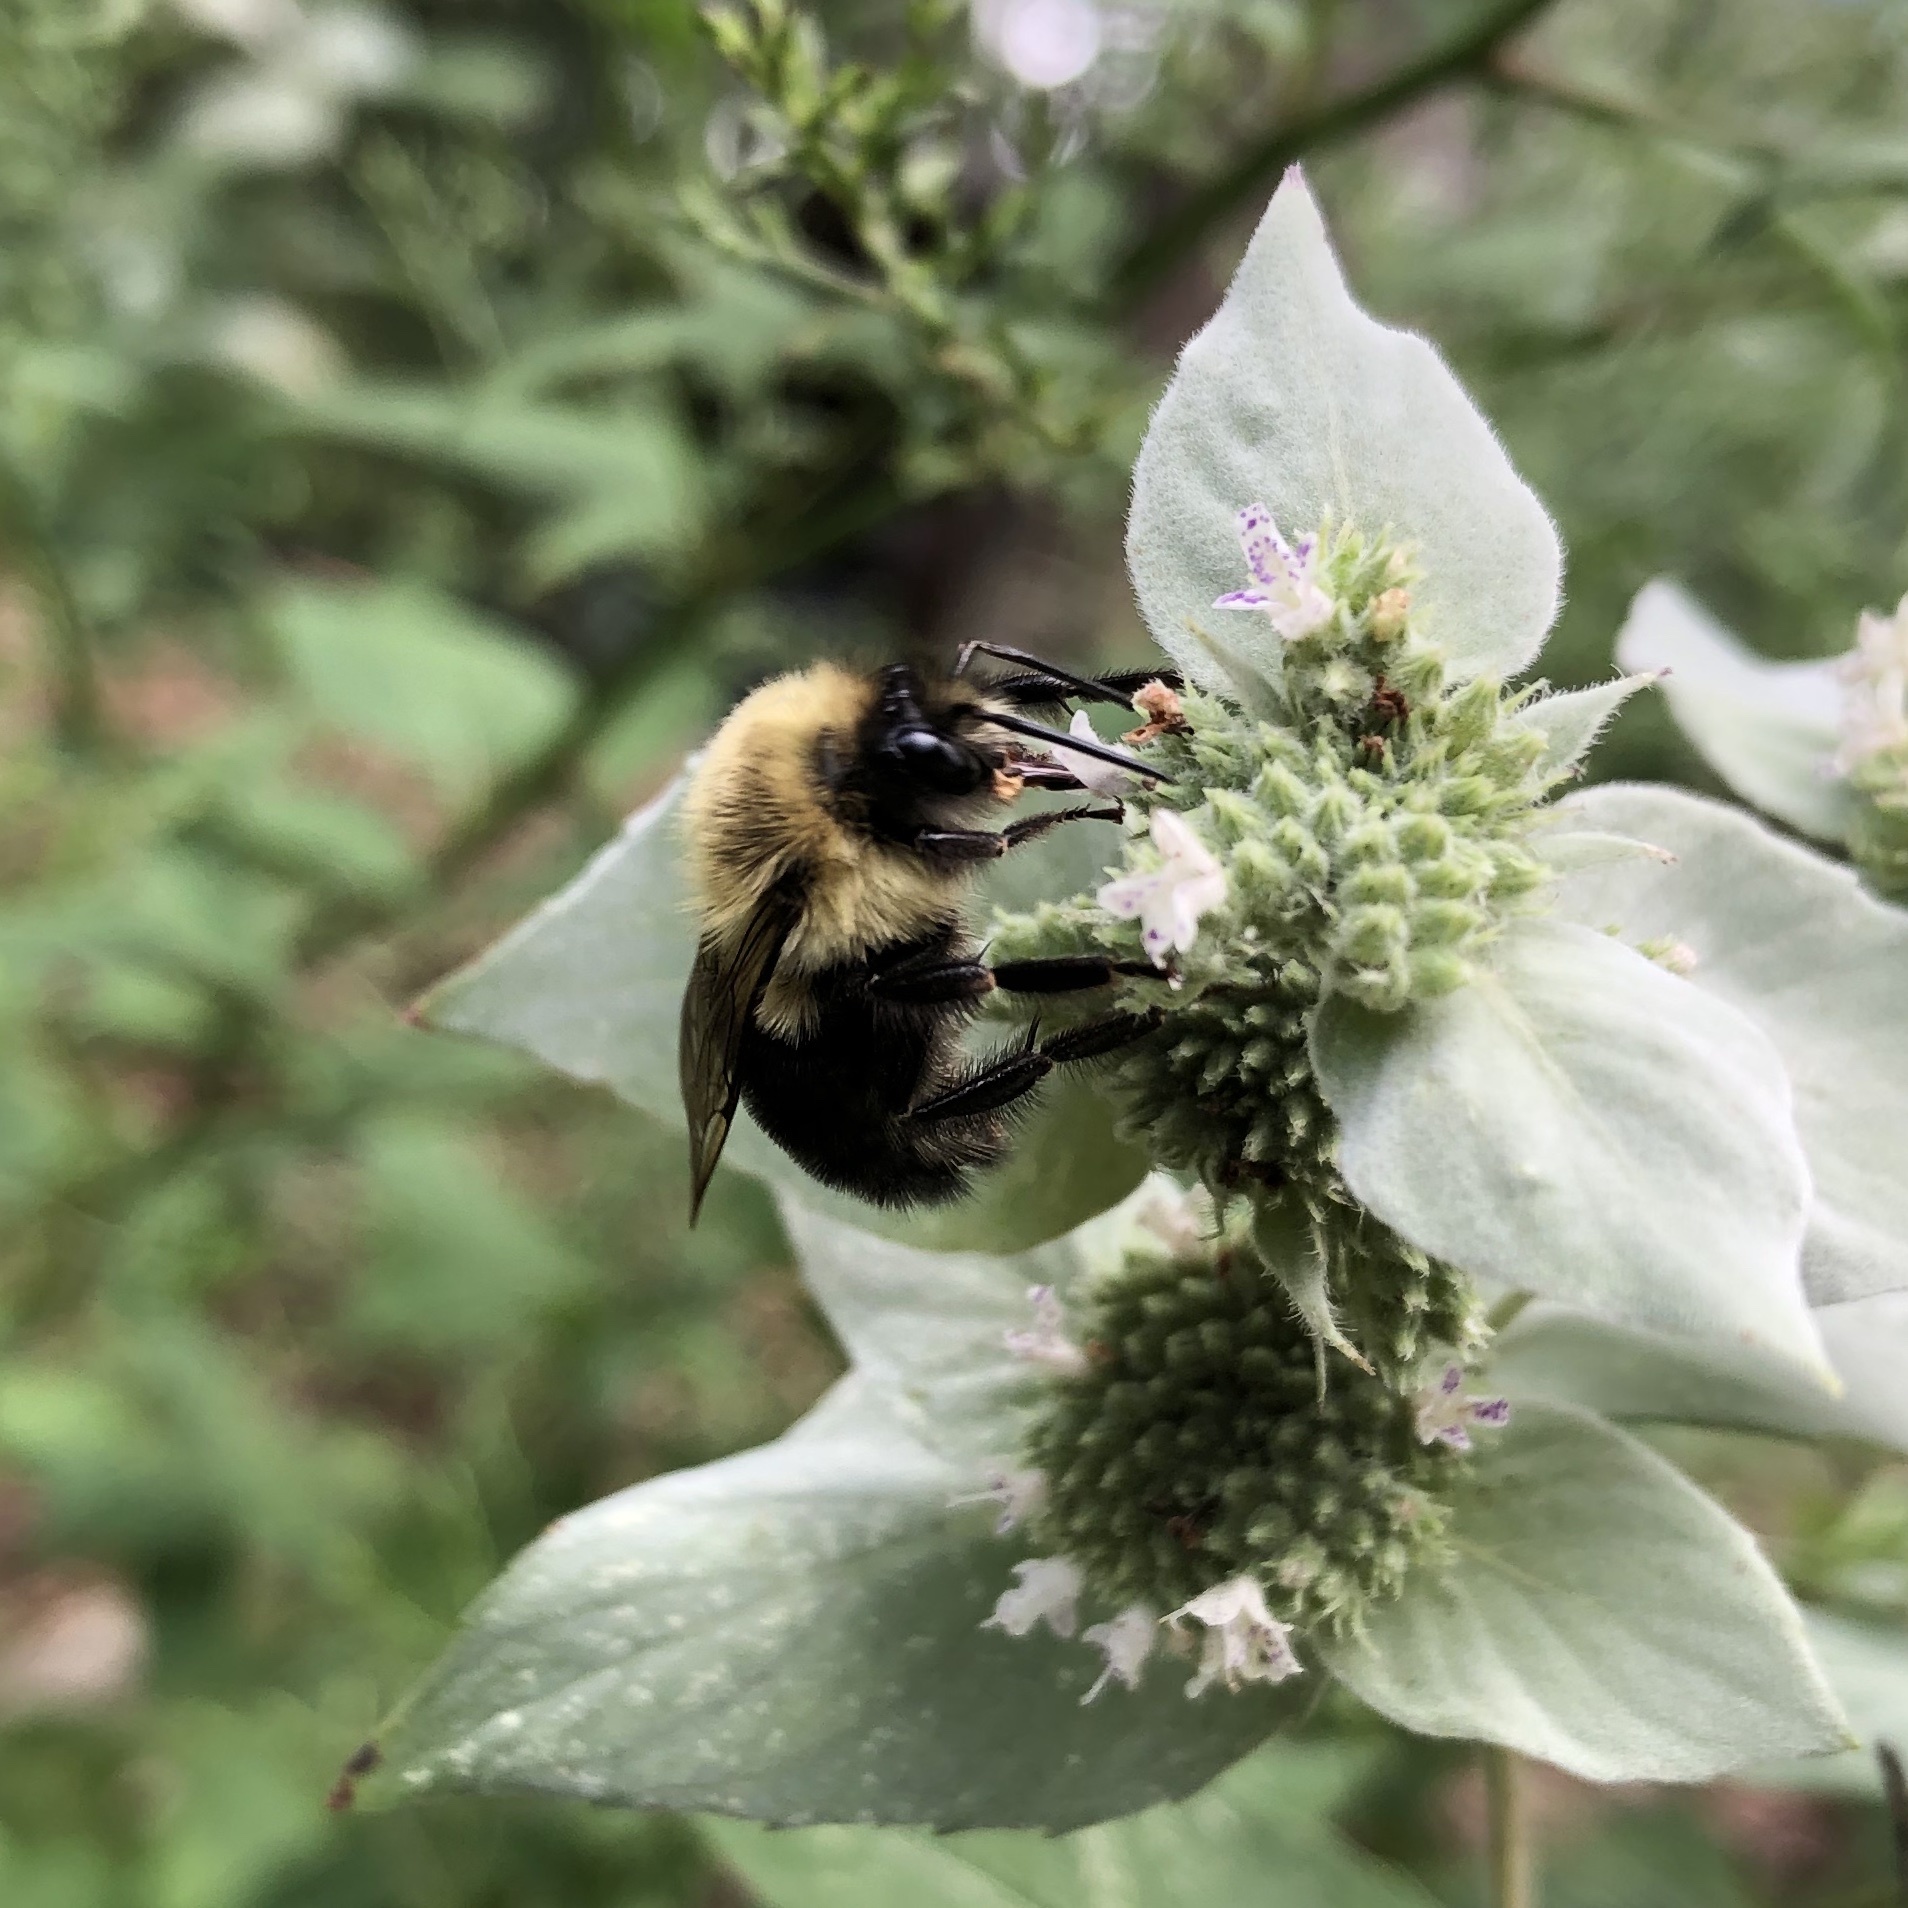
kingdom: Animalia
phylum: Arthropoda
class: Insecta
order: Hymenoptera
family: Apidae
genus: Bombus
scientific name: Bombus impatiens
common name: Common eastern bumble bee
